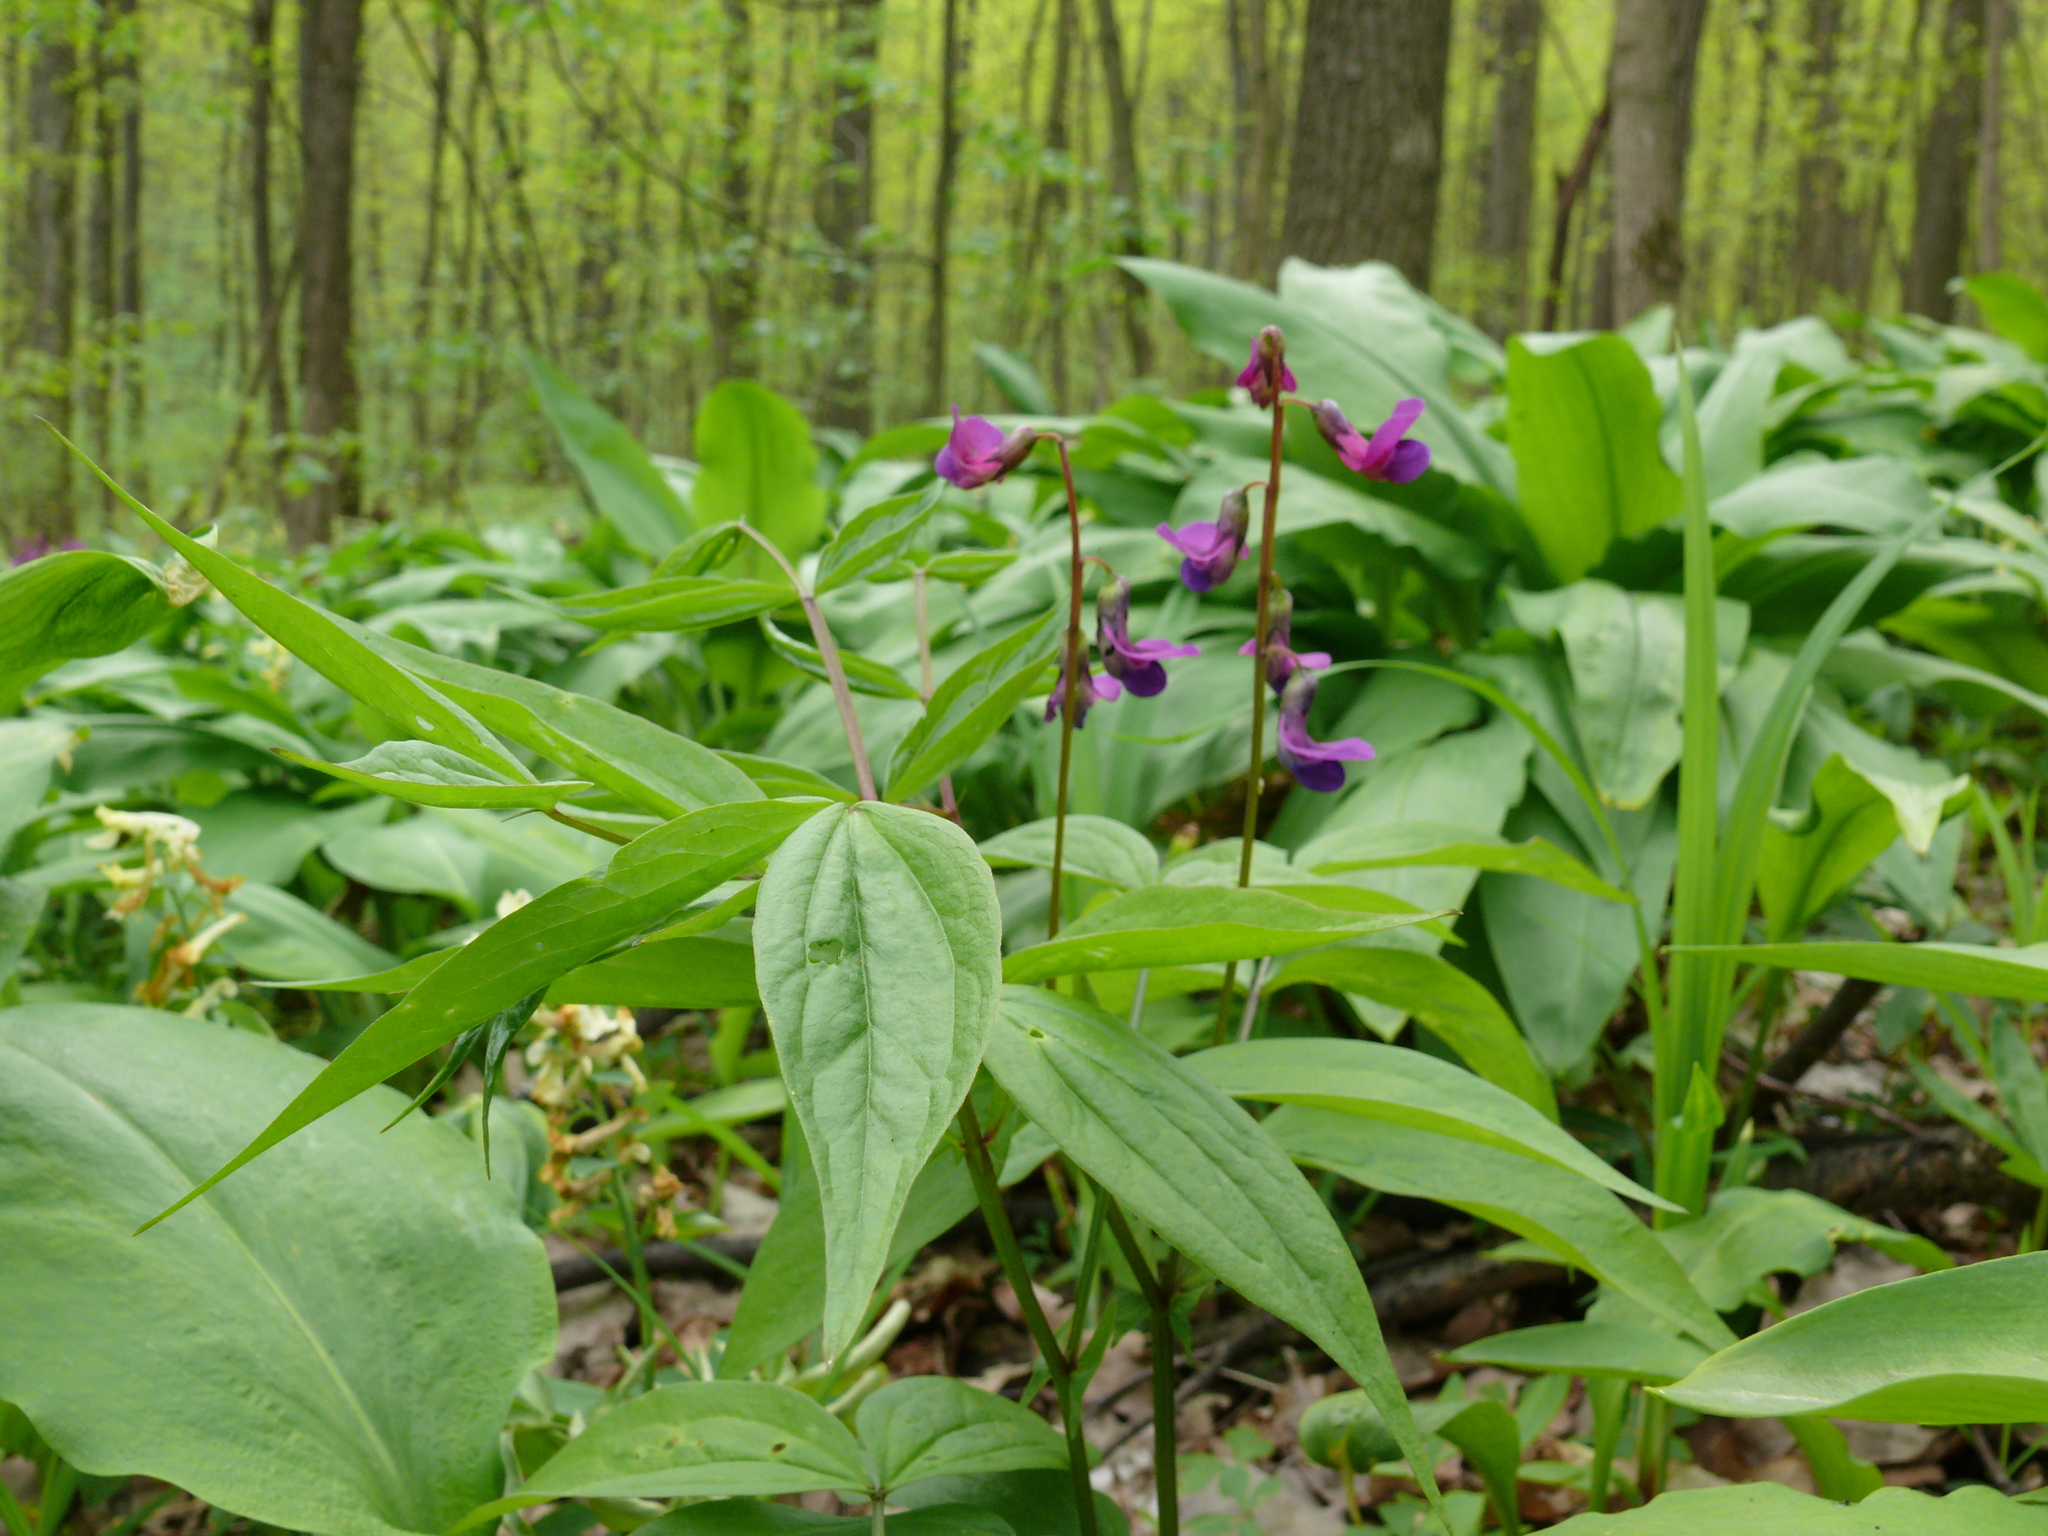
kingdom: Plantae
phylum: Tracheophyta
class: Magnoliopsida
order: Fabales
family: Fabaceae
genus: Lathyrus
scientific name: Lathyrus vernus
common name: Spring pea
